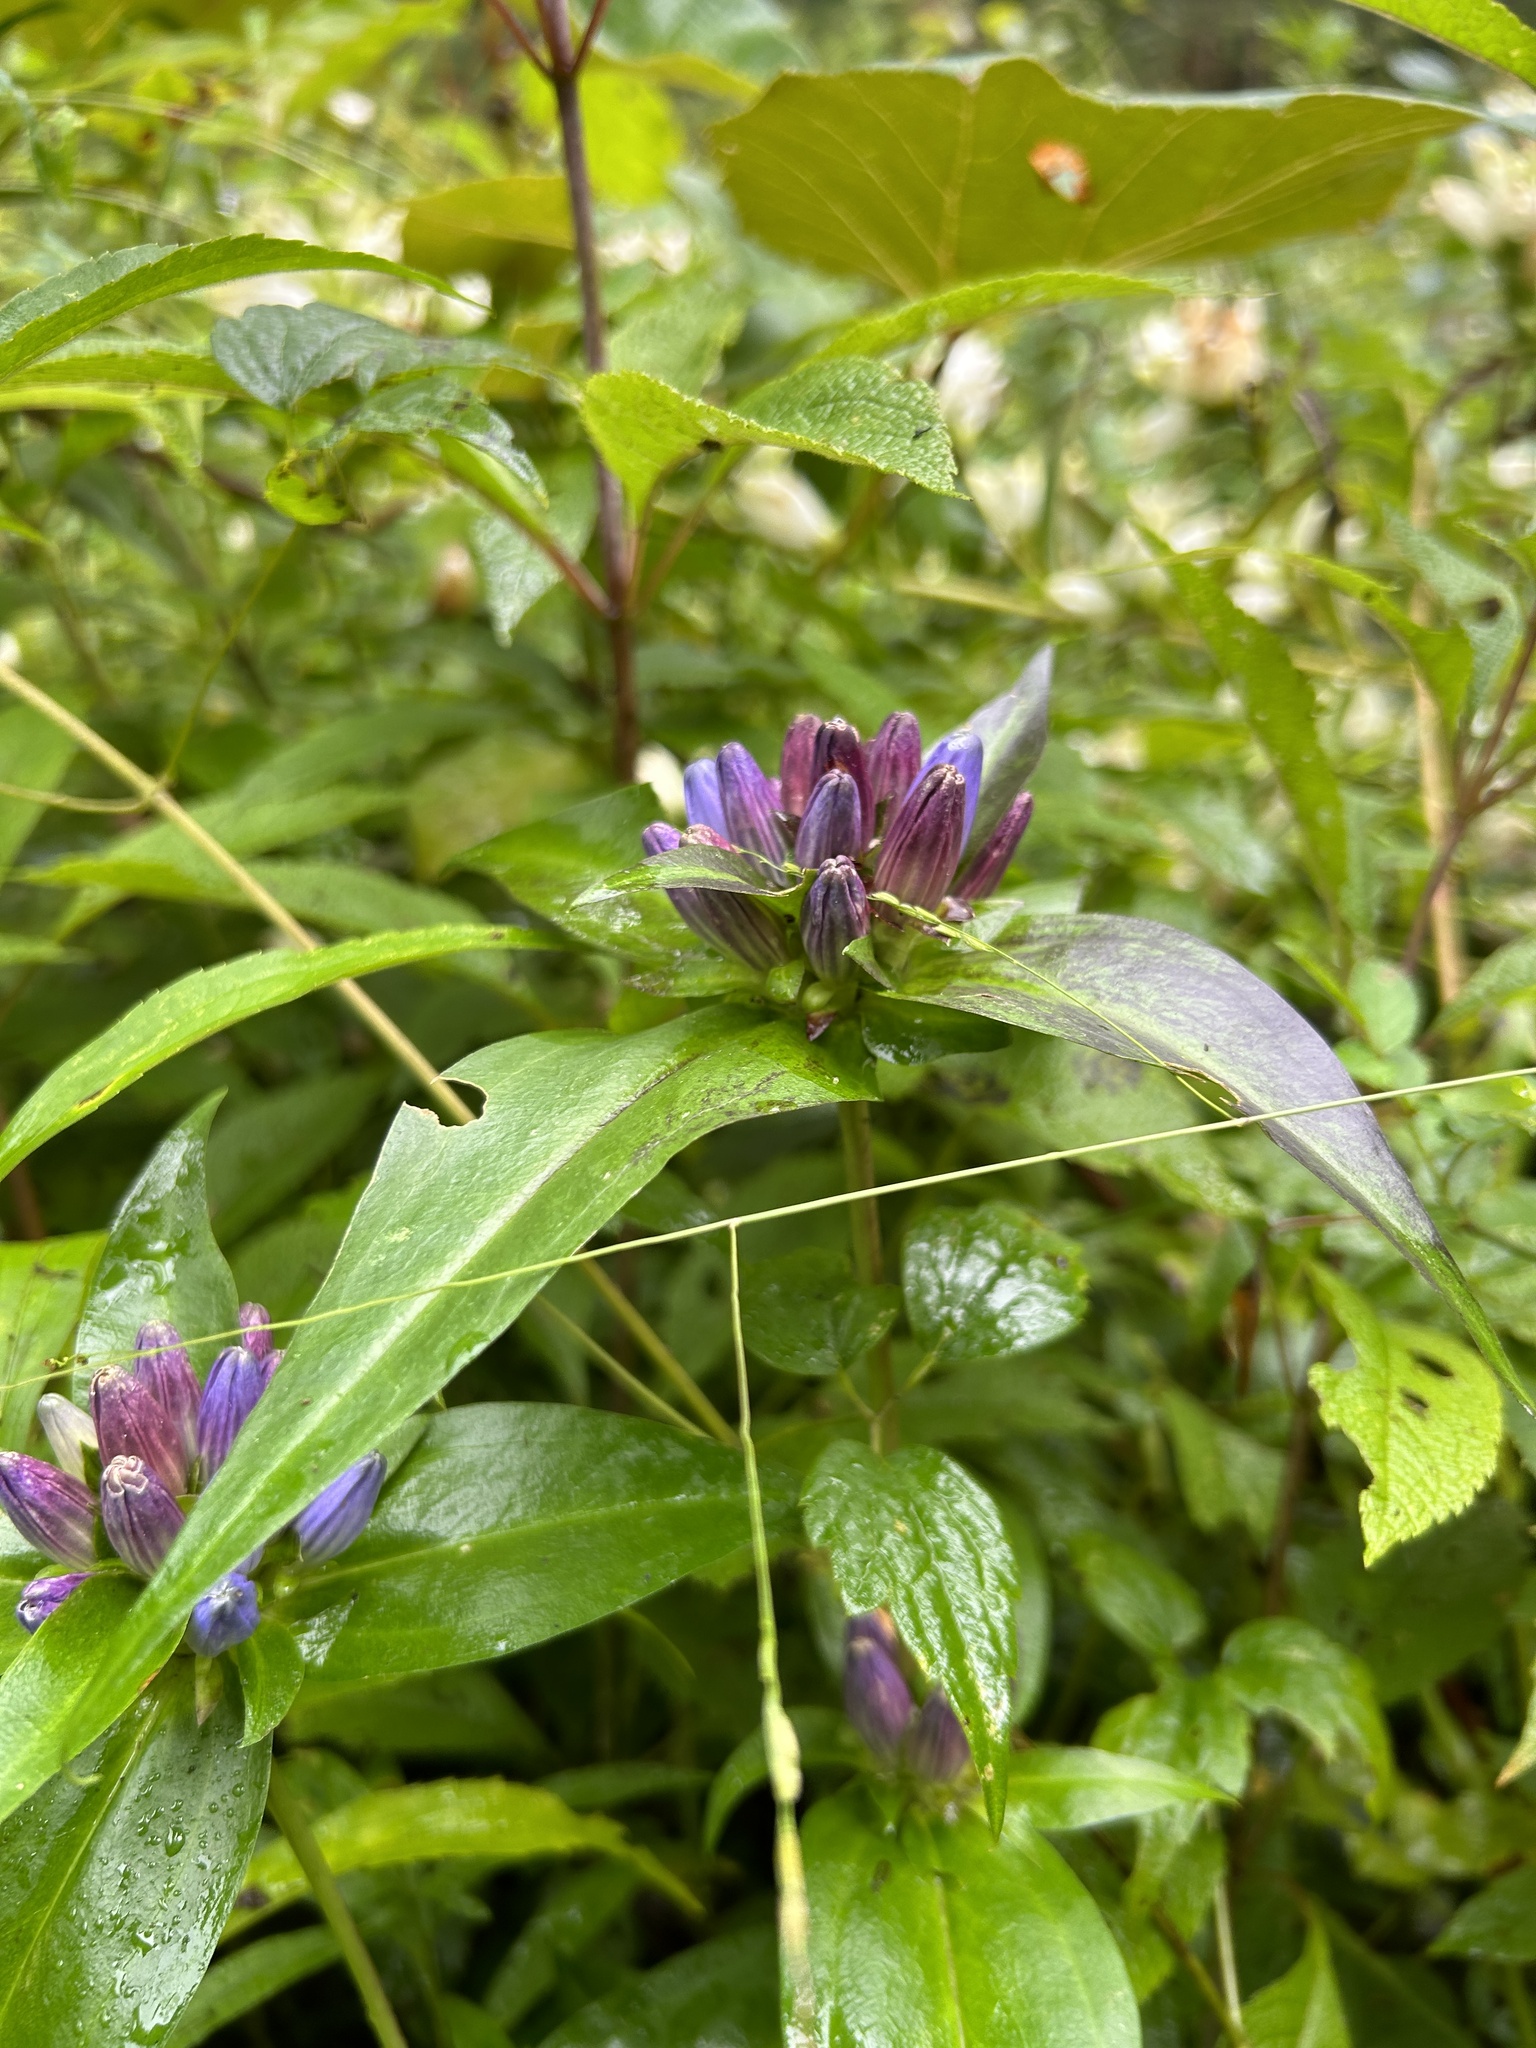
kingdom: Plantae
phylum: Tracheophyta
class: Magnoliopsida
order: Gentianales
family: Gentianaceae
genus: Gentiana
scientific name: Gentiana clausa
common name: Blind gentian
